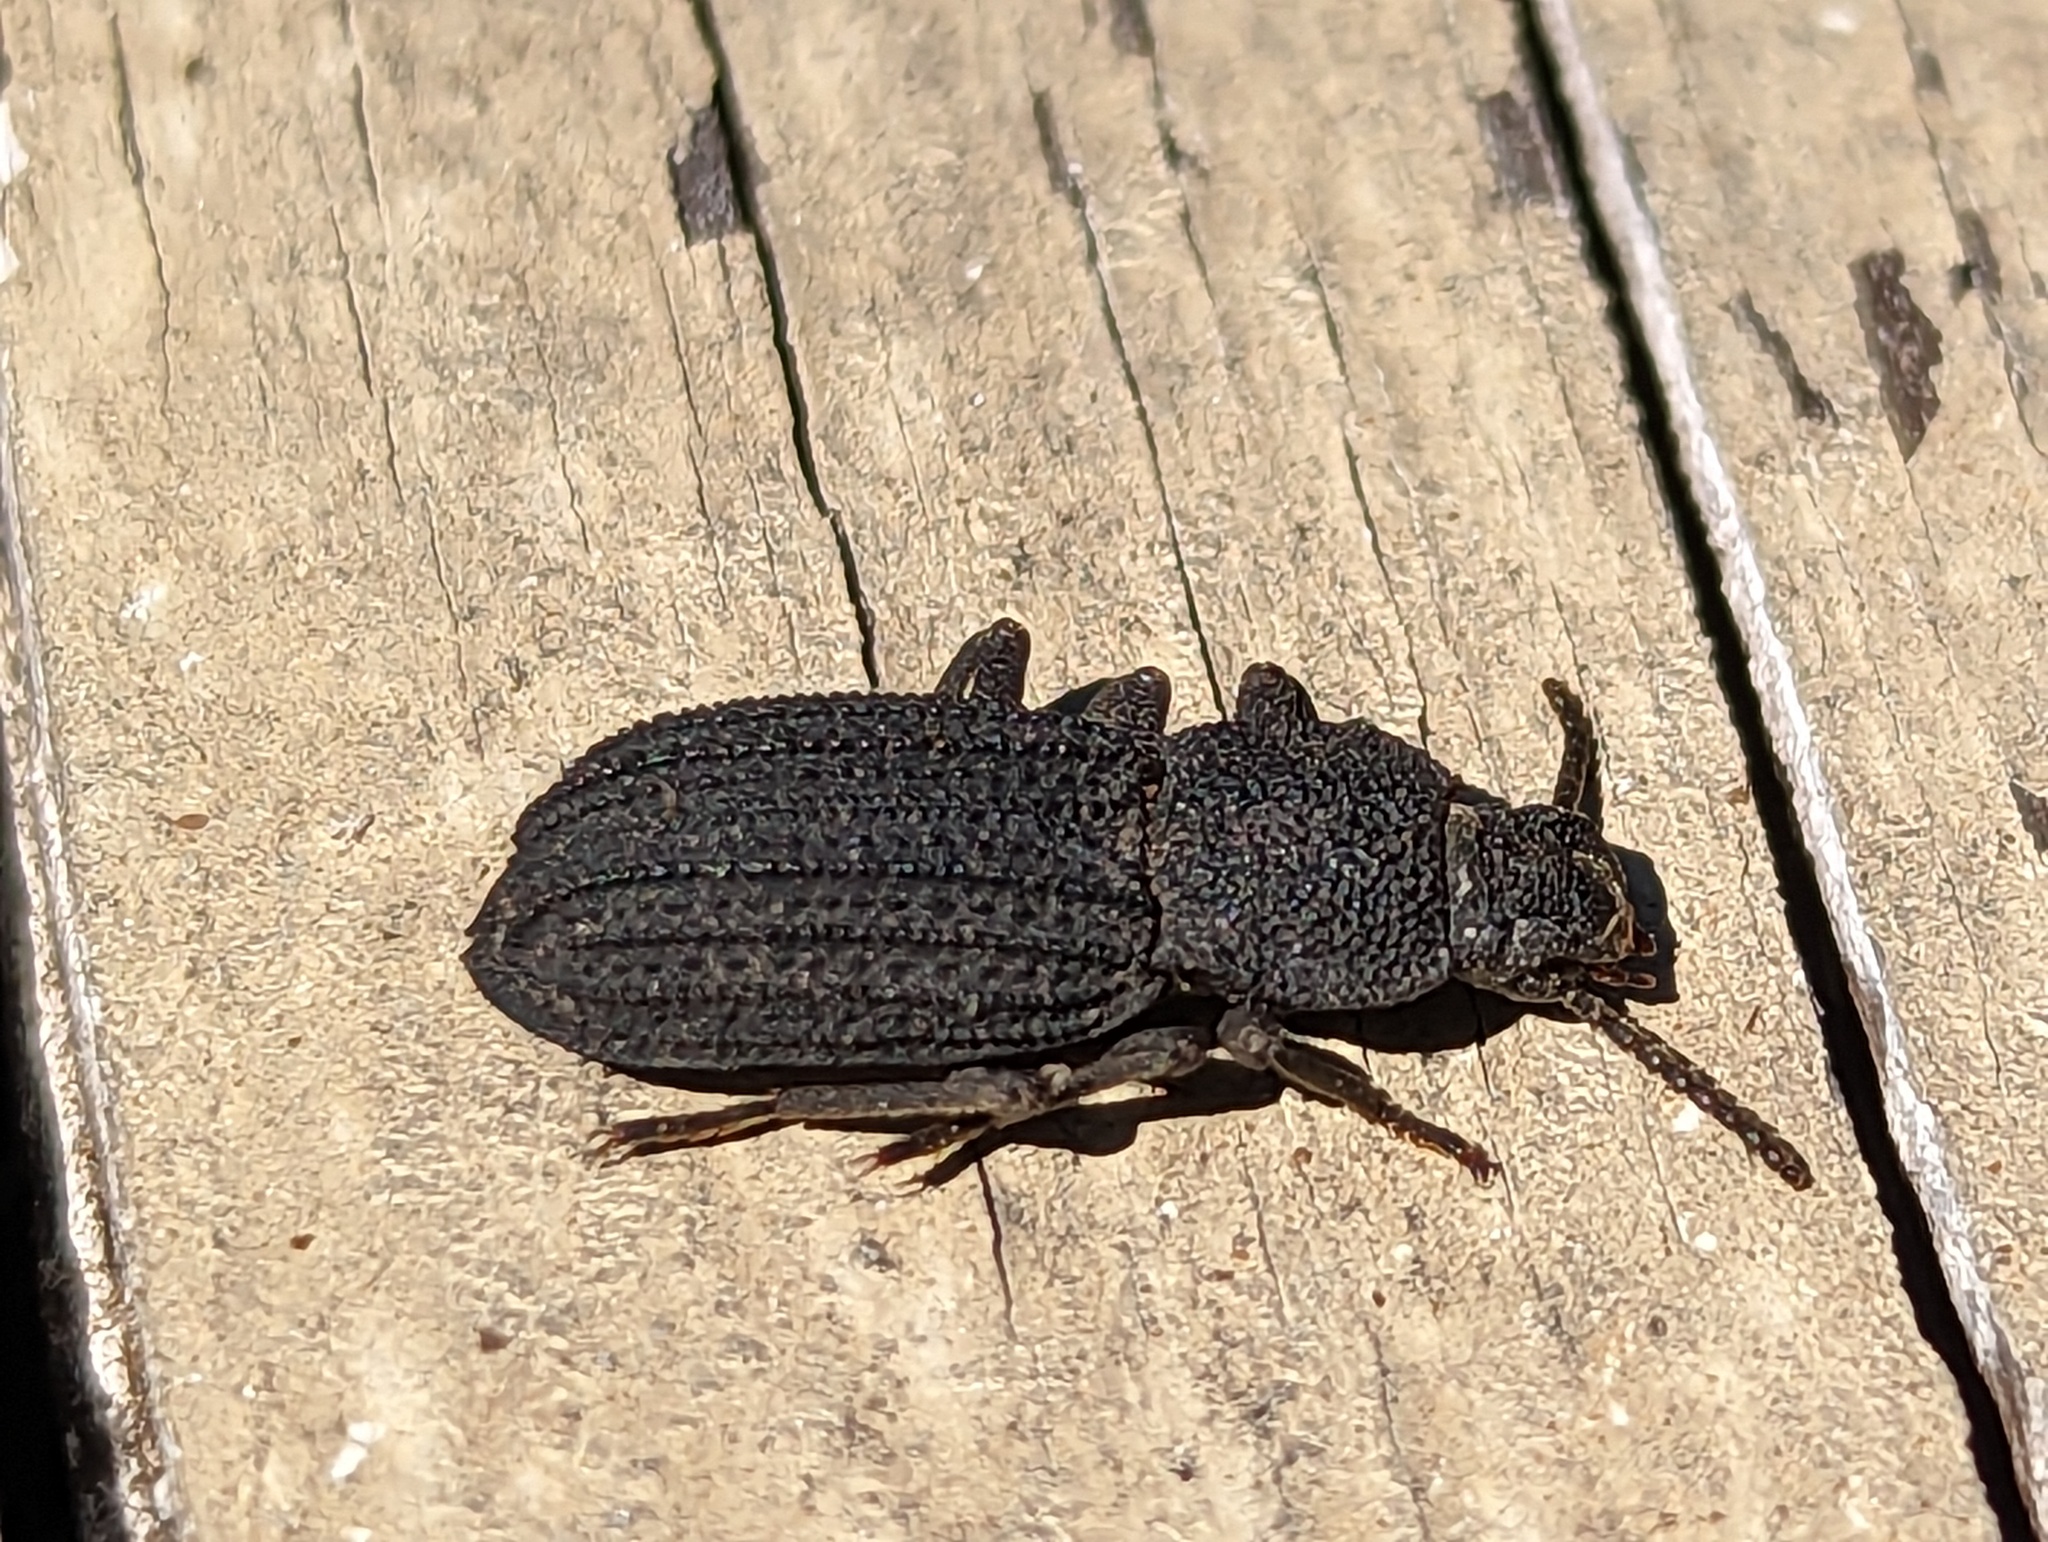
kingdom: Animalia
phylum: Arthropoda
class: Insecta
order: Coleoptera
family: Tenebrionidae
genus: Nyctoporis
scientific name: Nyctoporis carinata
